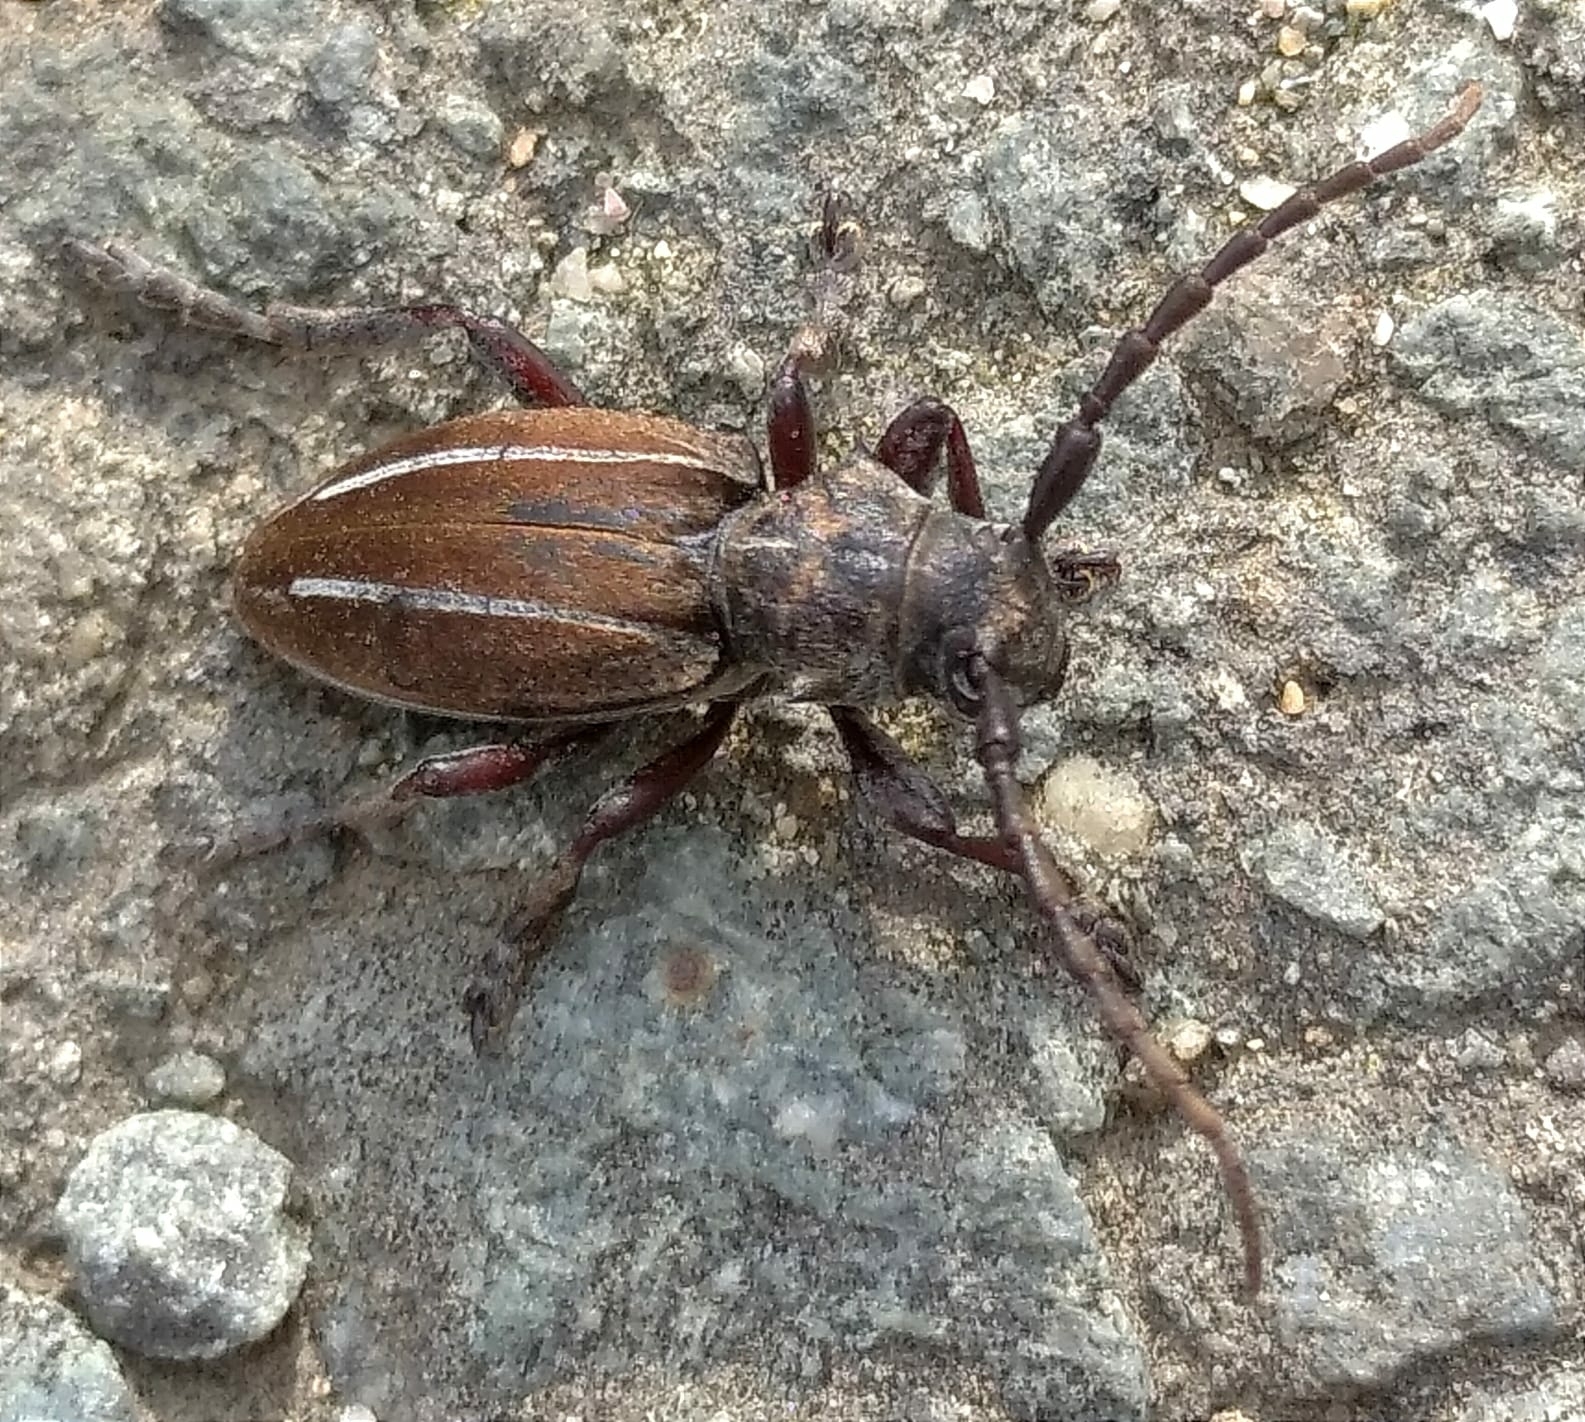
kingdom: Animalia
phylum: Arthropoda
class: Insecta
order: Coleoptera
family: Cerambycidae
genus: Neodorcadion
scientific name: Neodorcadion bilineatum
